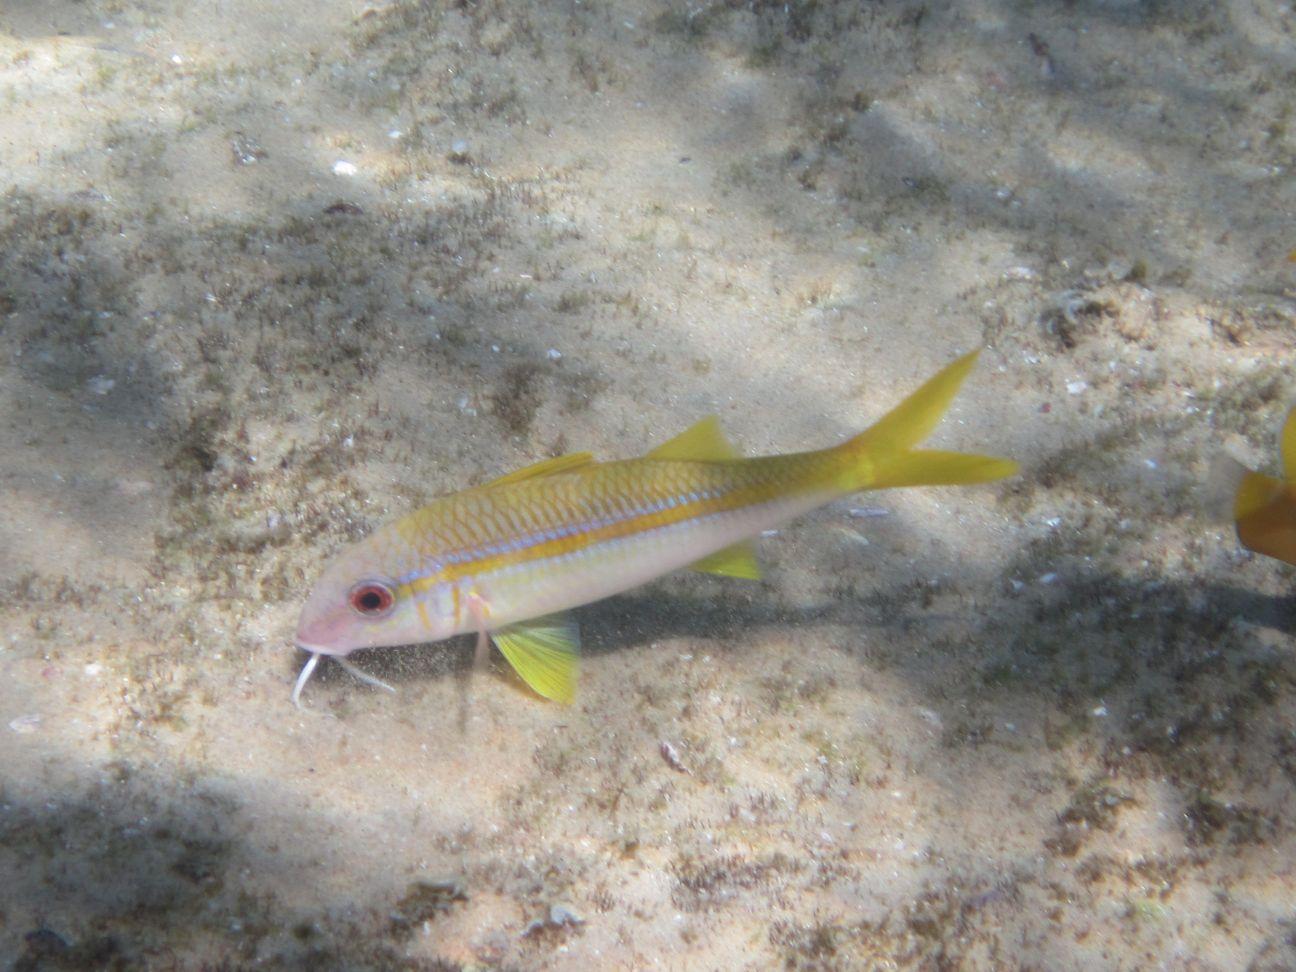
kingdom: Animalia
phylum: Chordata
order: Perciformes
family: Mullidae
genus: Mulloidichthys
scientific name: Mulloidichthys vanicolensis
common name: Yellowfin goatfish
